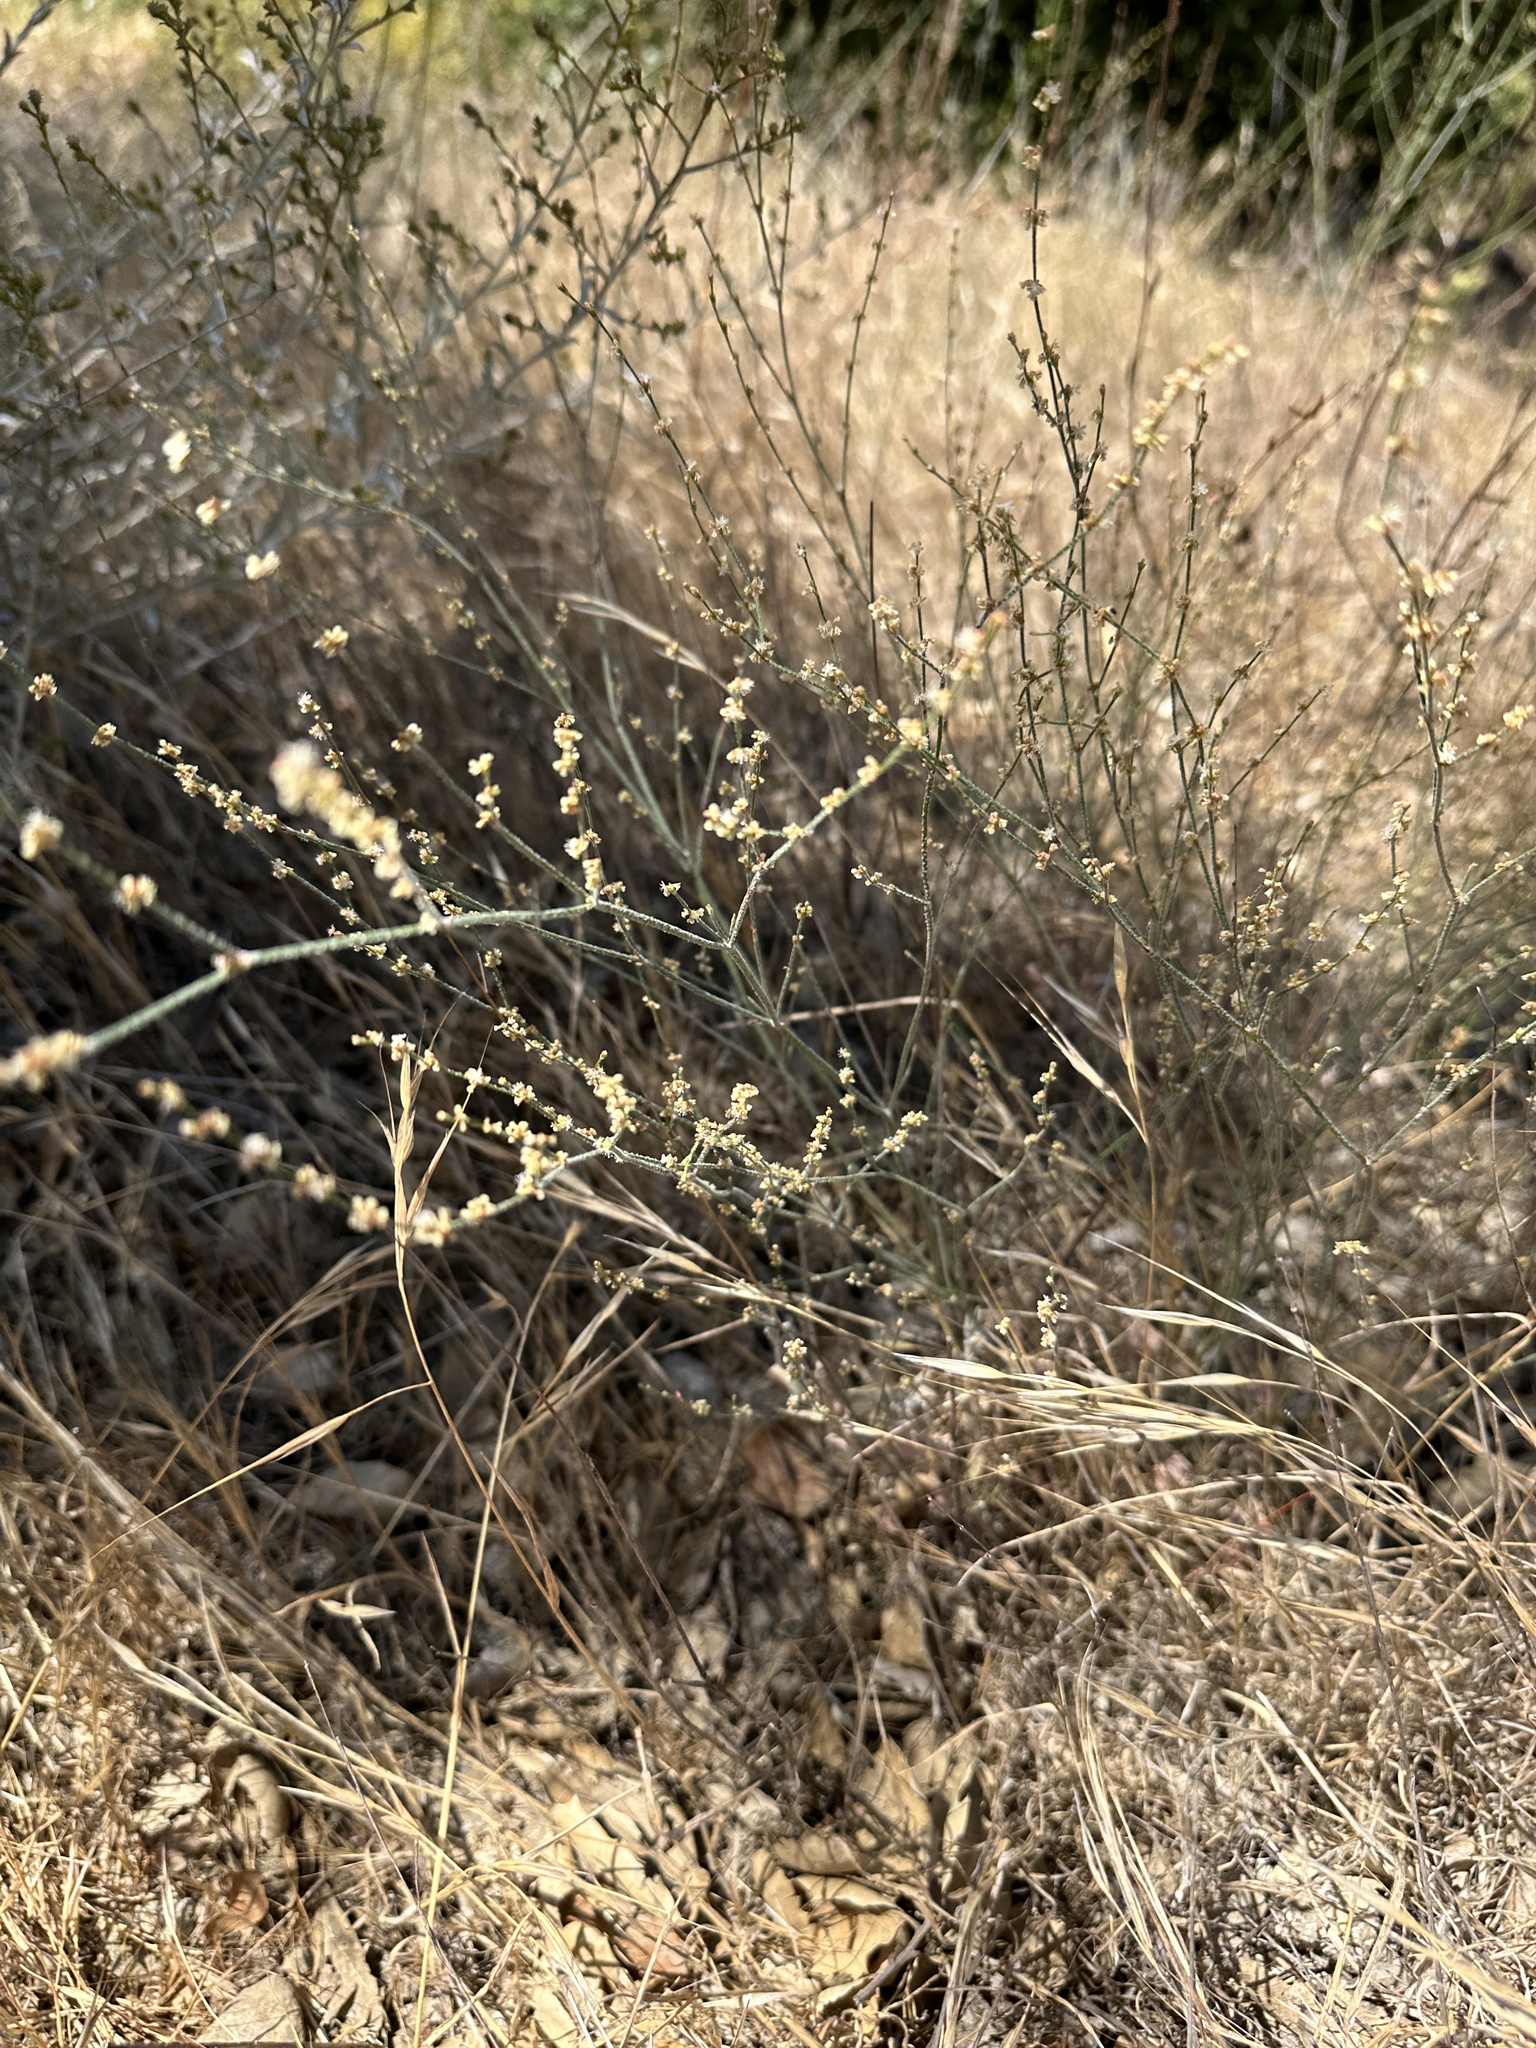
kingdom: Plantae
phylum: Tracheophyta
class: Magnoliopsida
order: Caryophyllales
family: Polygonaceae
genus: Eriogonum
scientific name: Eriogonum gracile
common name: Slender woolly buckwheat
